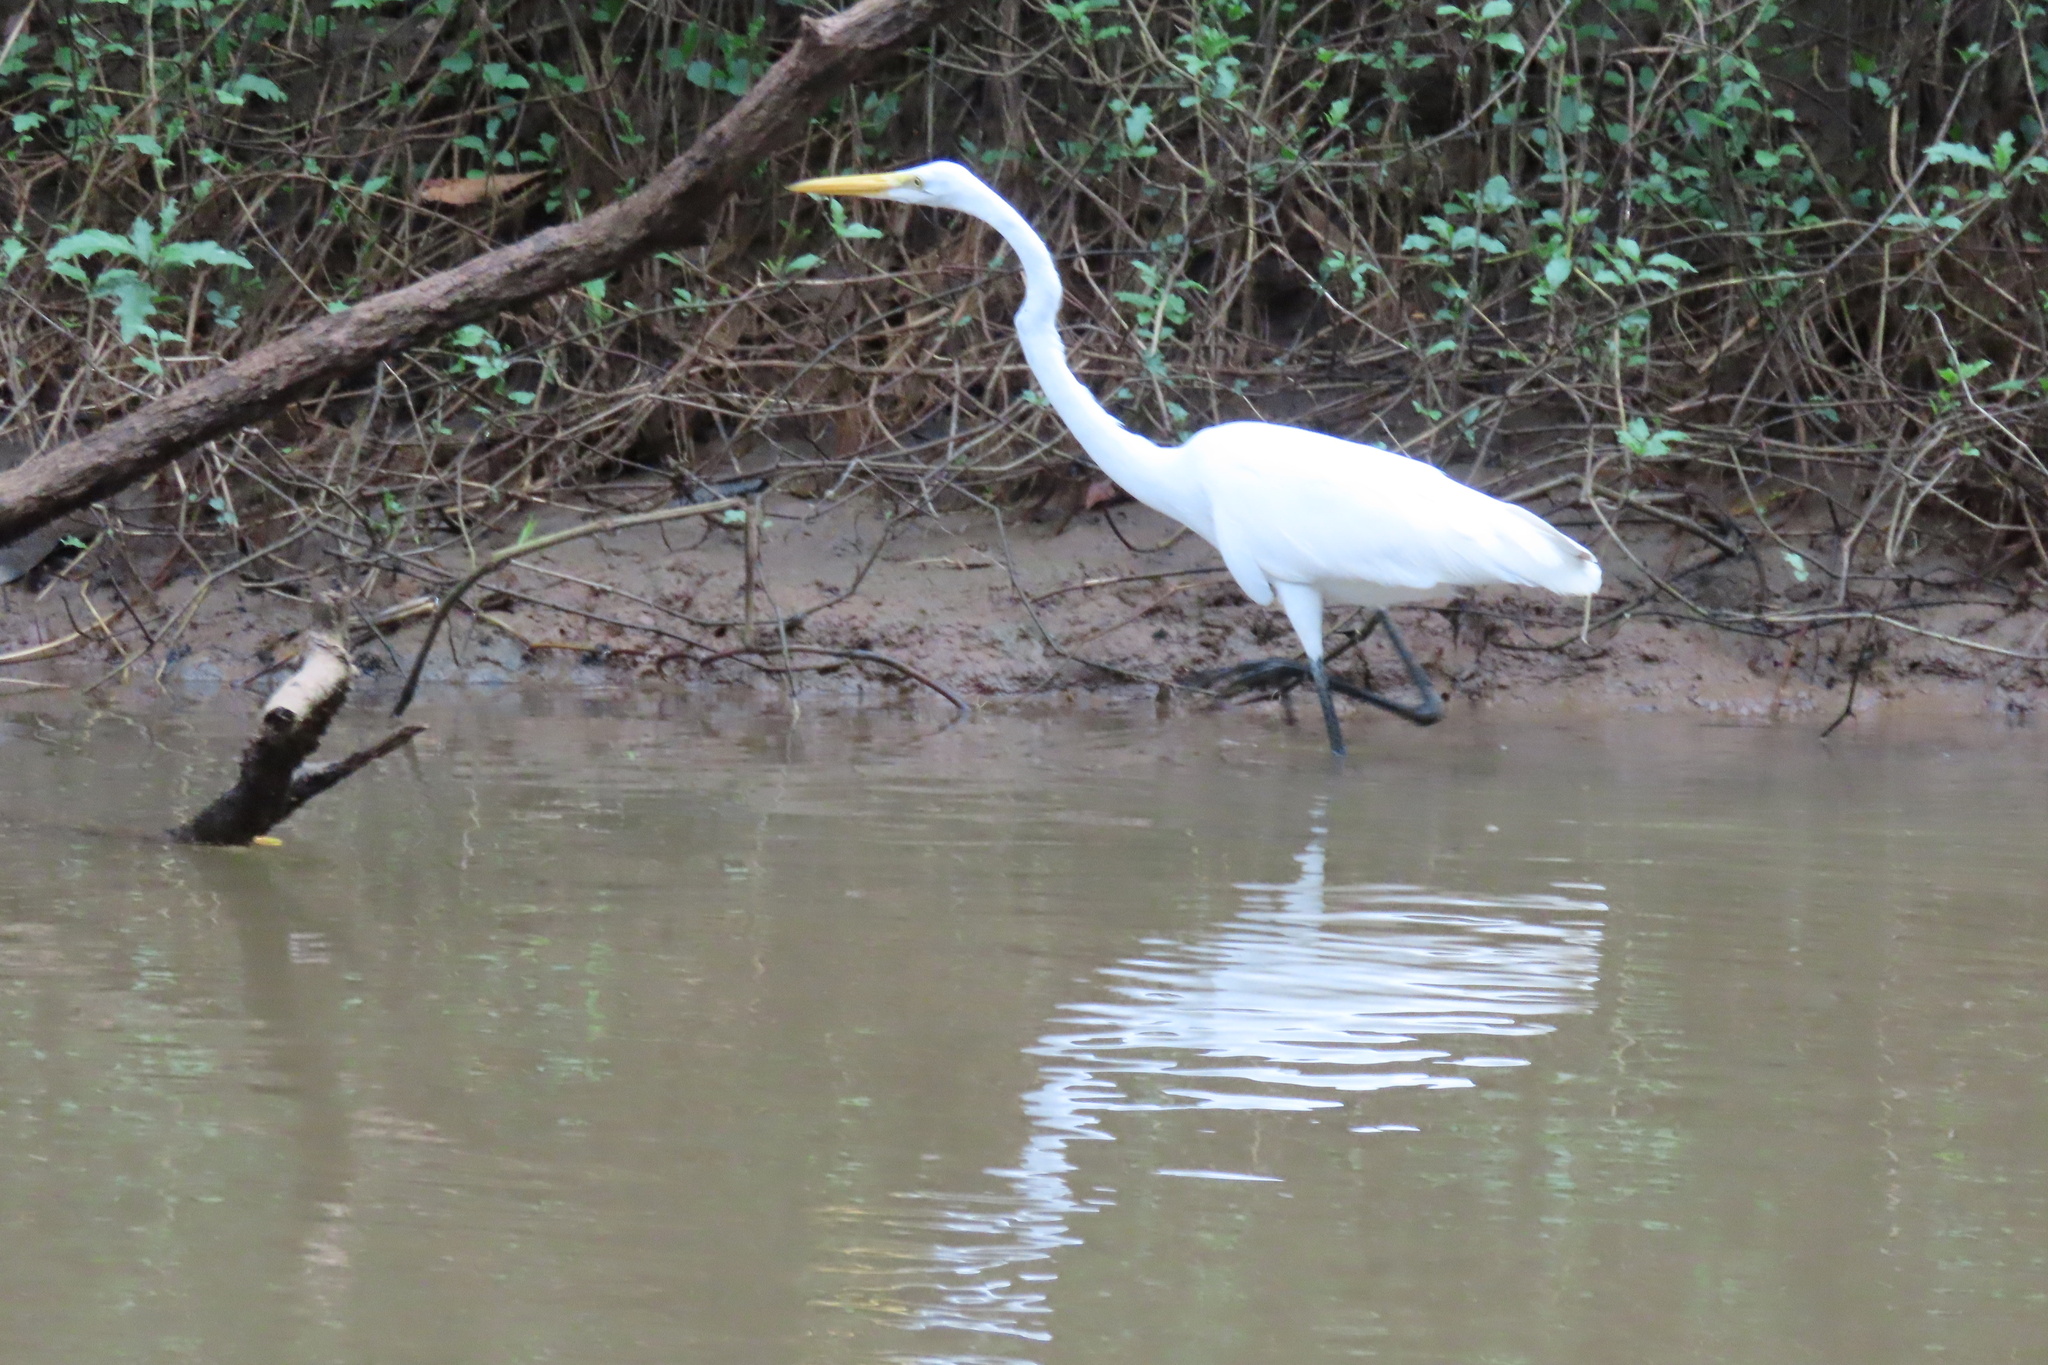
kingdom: Animalia
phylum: Chordata
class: Aves
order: Pelecaniformes
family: Ardeidae
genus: Ardea
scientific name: Ardea alba
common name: Great egret
